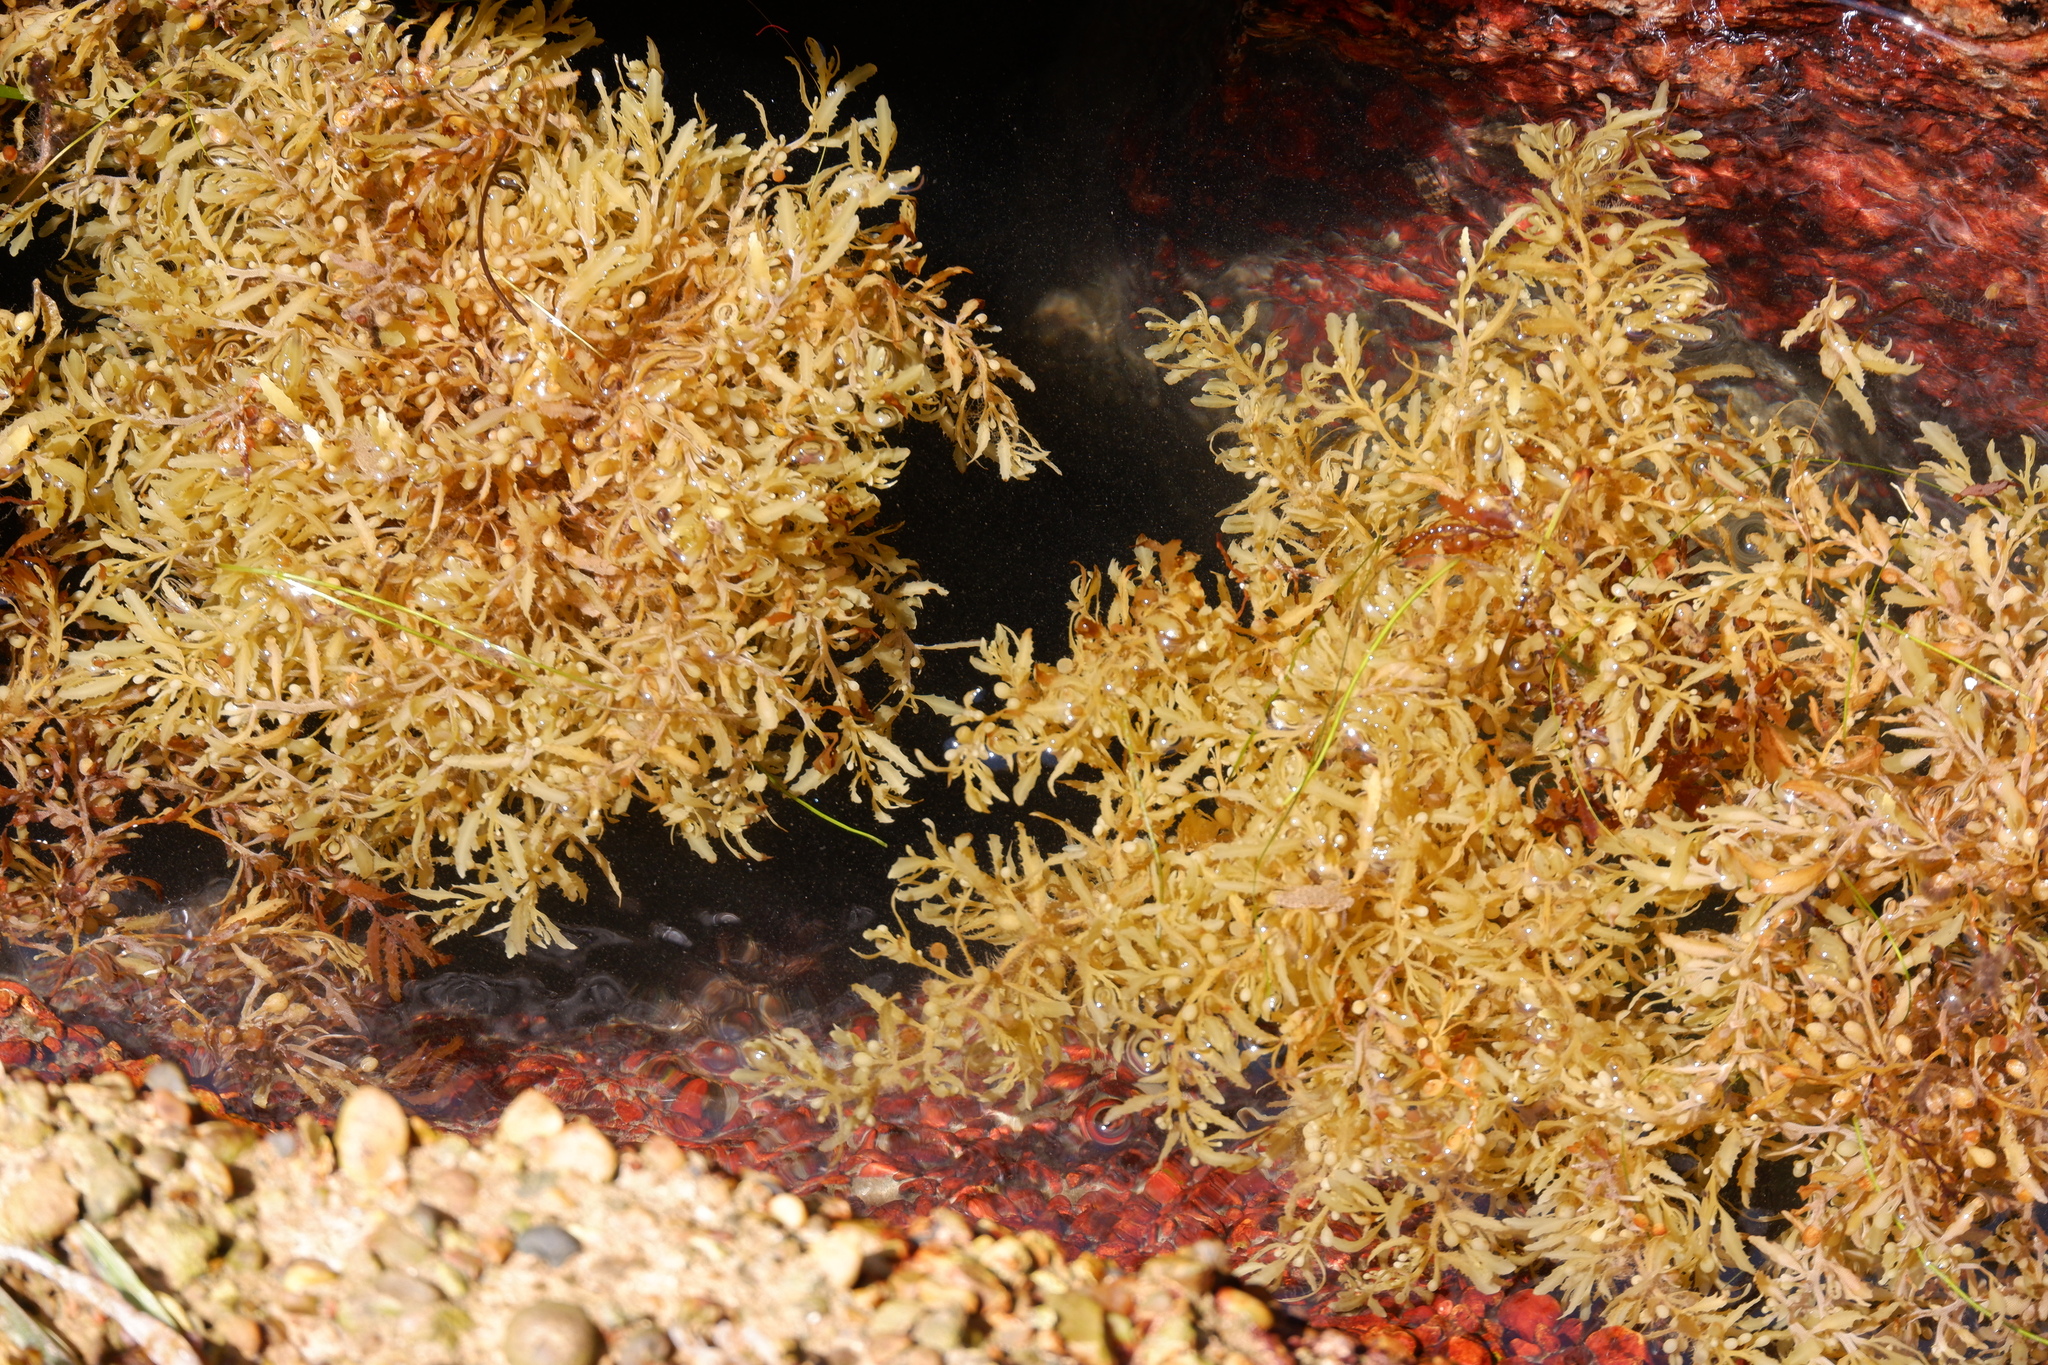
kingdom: Chromista
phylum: Ochrophyta
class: Phaeophyceae
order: Fucales
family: Sargassaceae
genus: Sargassum
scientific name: Sargassum fluitans
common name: Sargassum seaweed
